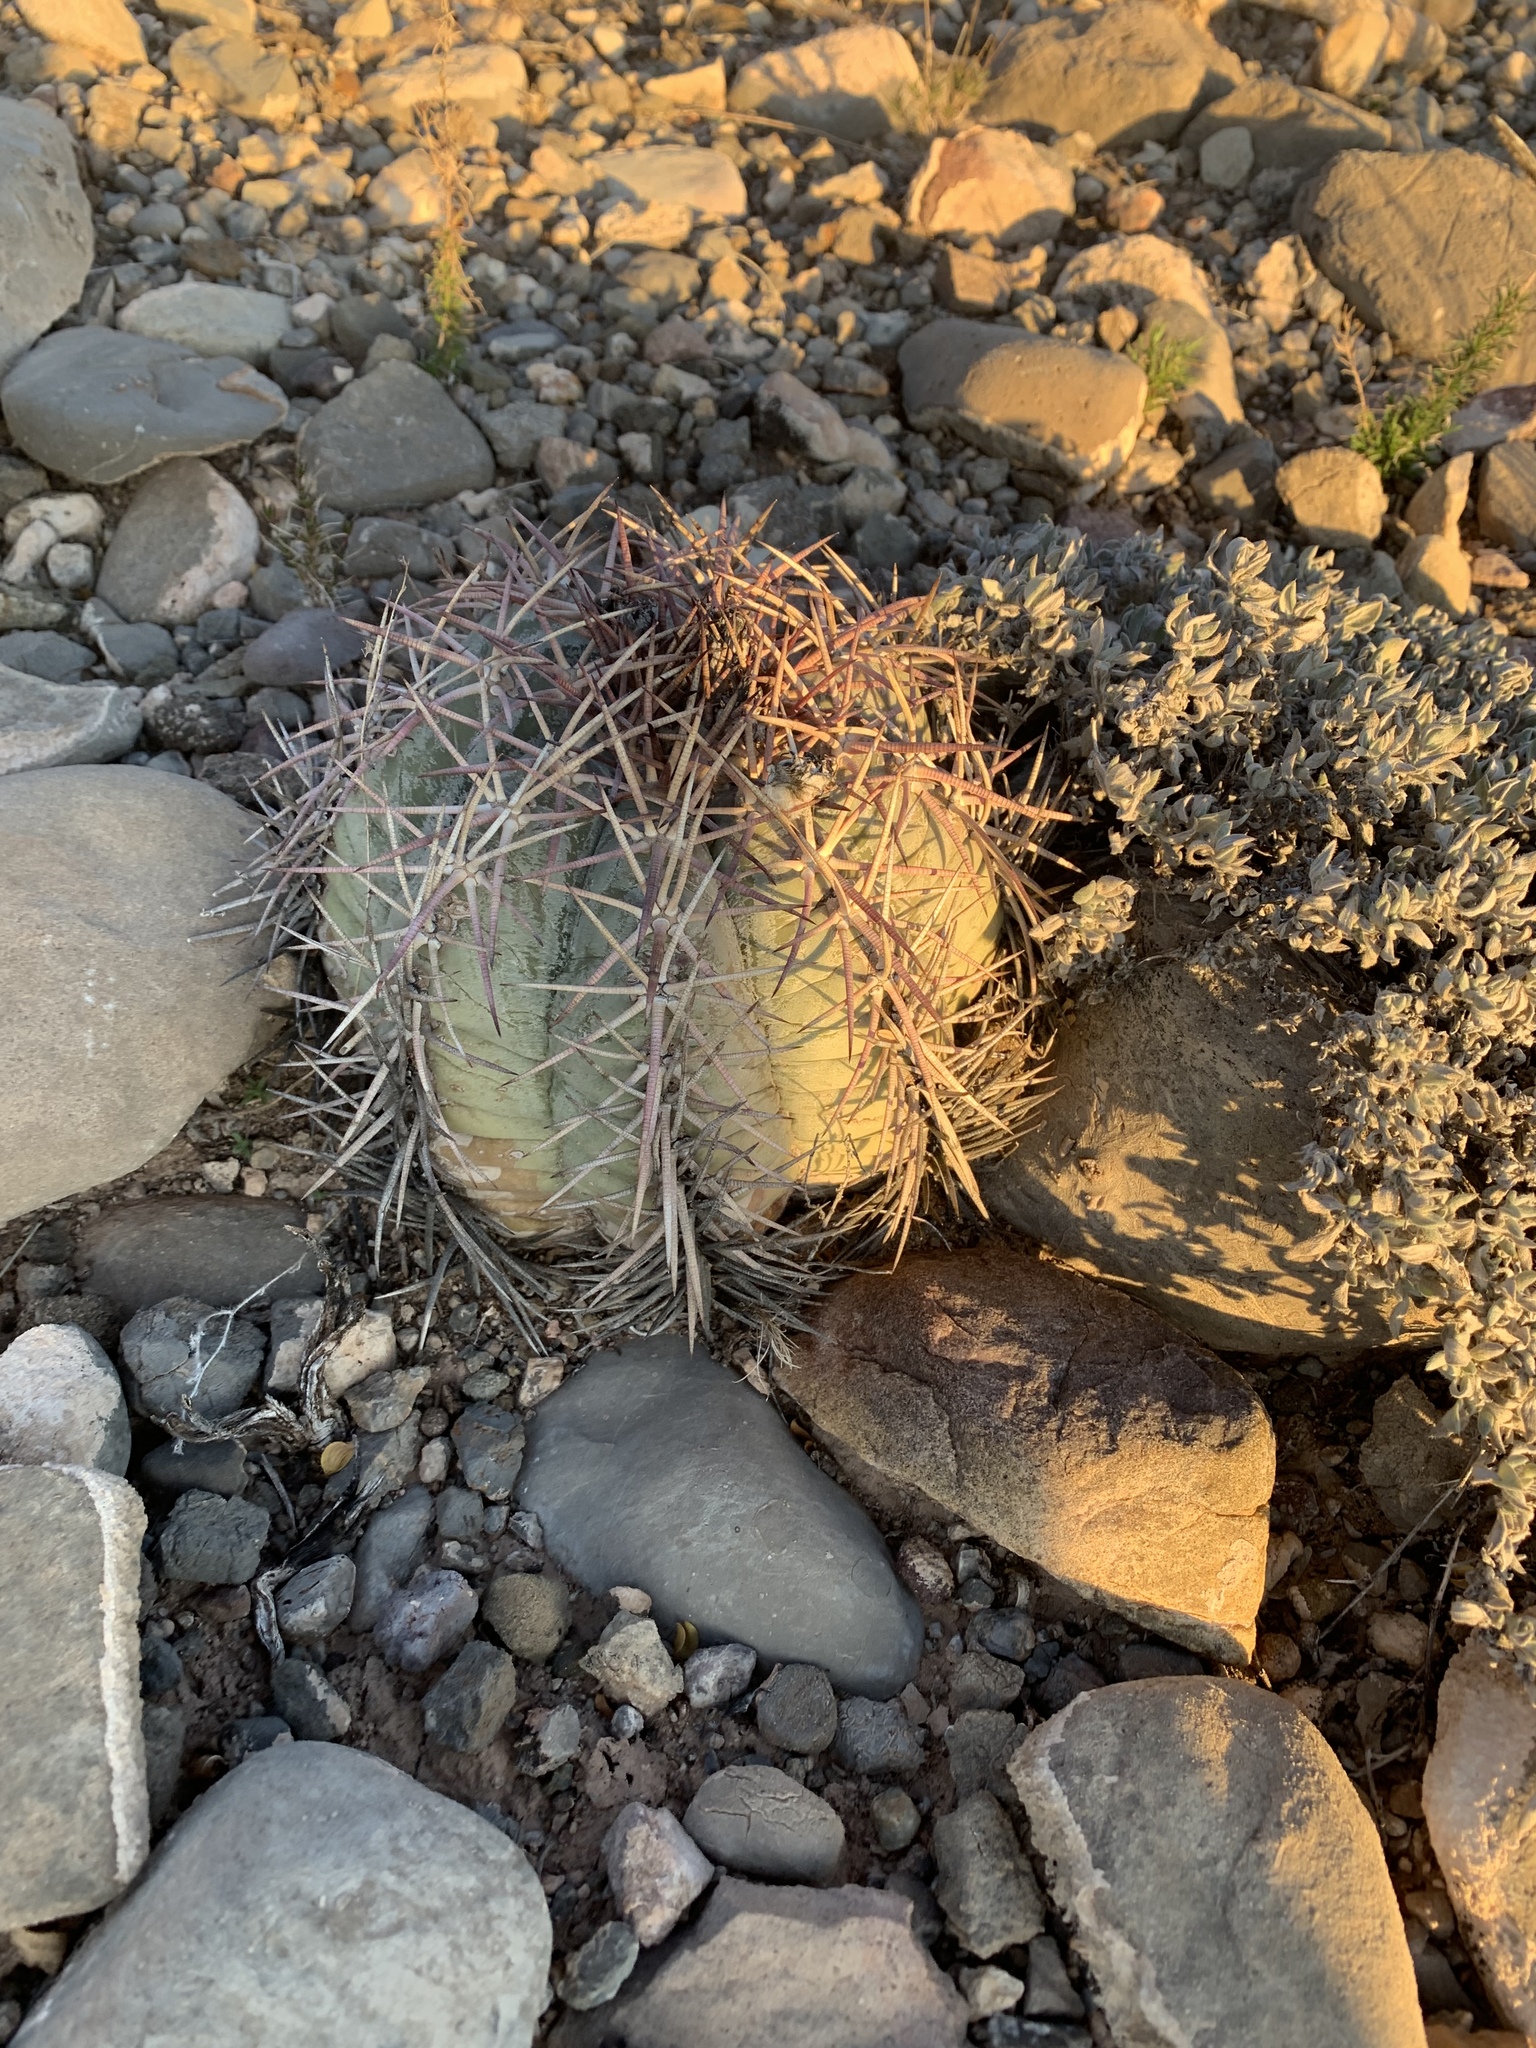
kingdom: Plantae
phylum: Tracheophyta
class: Magnoliopsida
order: Caryophyllales
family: Cactaceae
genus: Echinocactus
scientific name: Echinocactus horizonthalonius
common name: Devilshead
